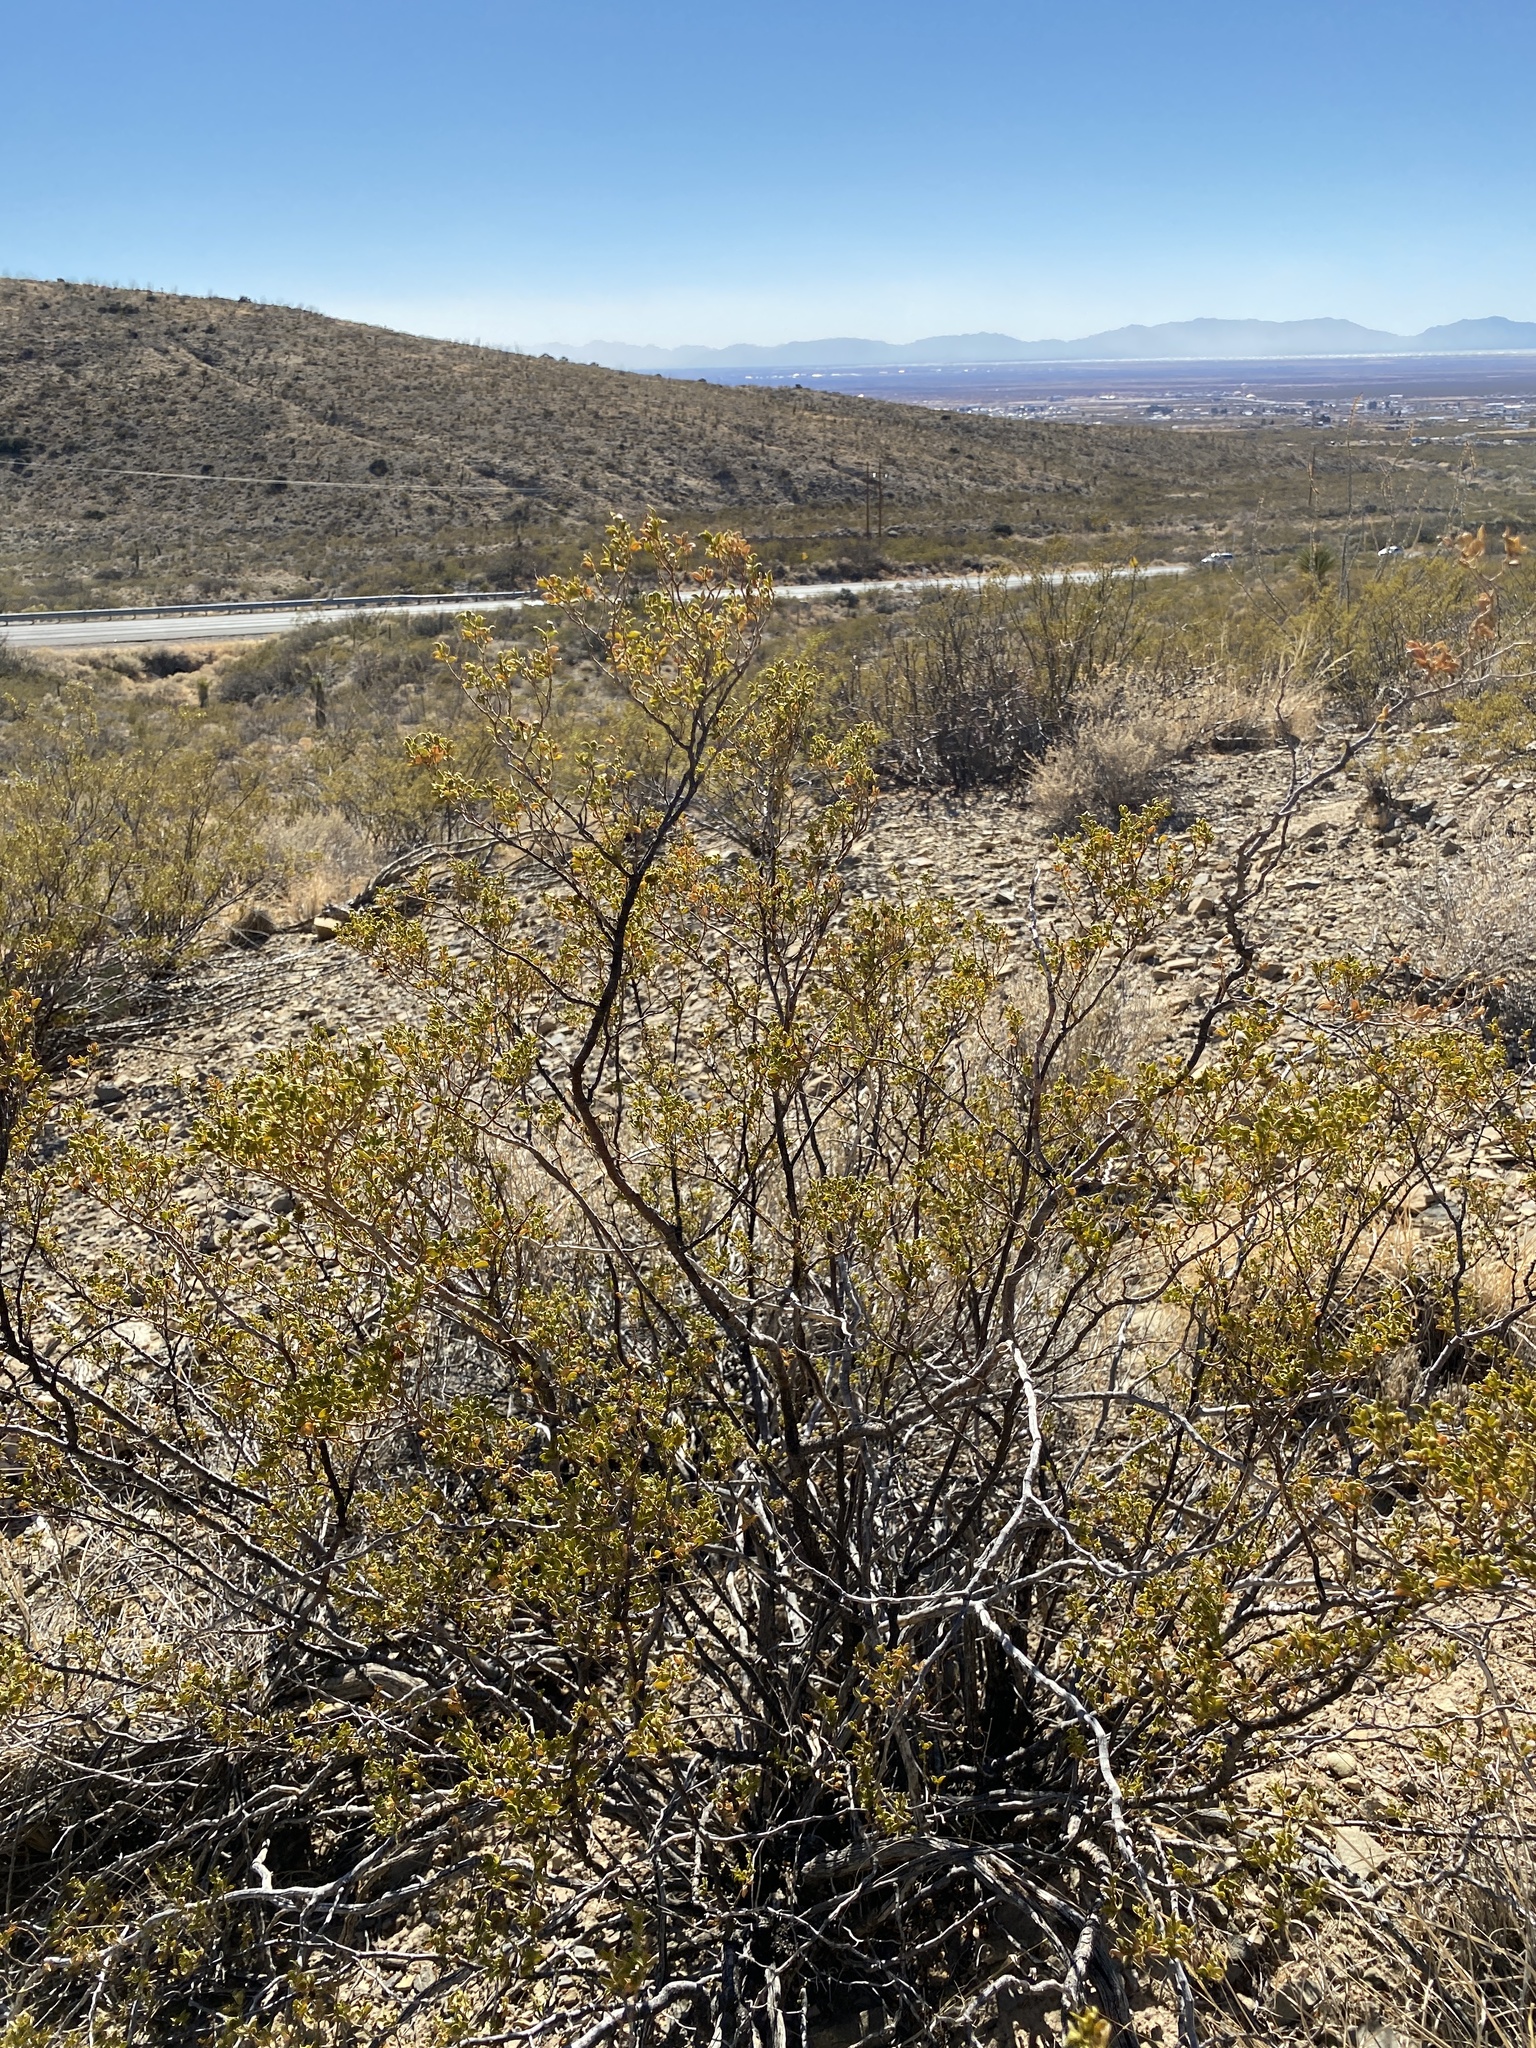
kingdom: Plantae
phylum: Tracheophyta
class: Magnoliopsida
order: Zygophyllales
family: Zygophyllaceae
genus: Larrea
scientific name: Larrea tridentata
